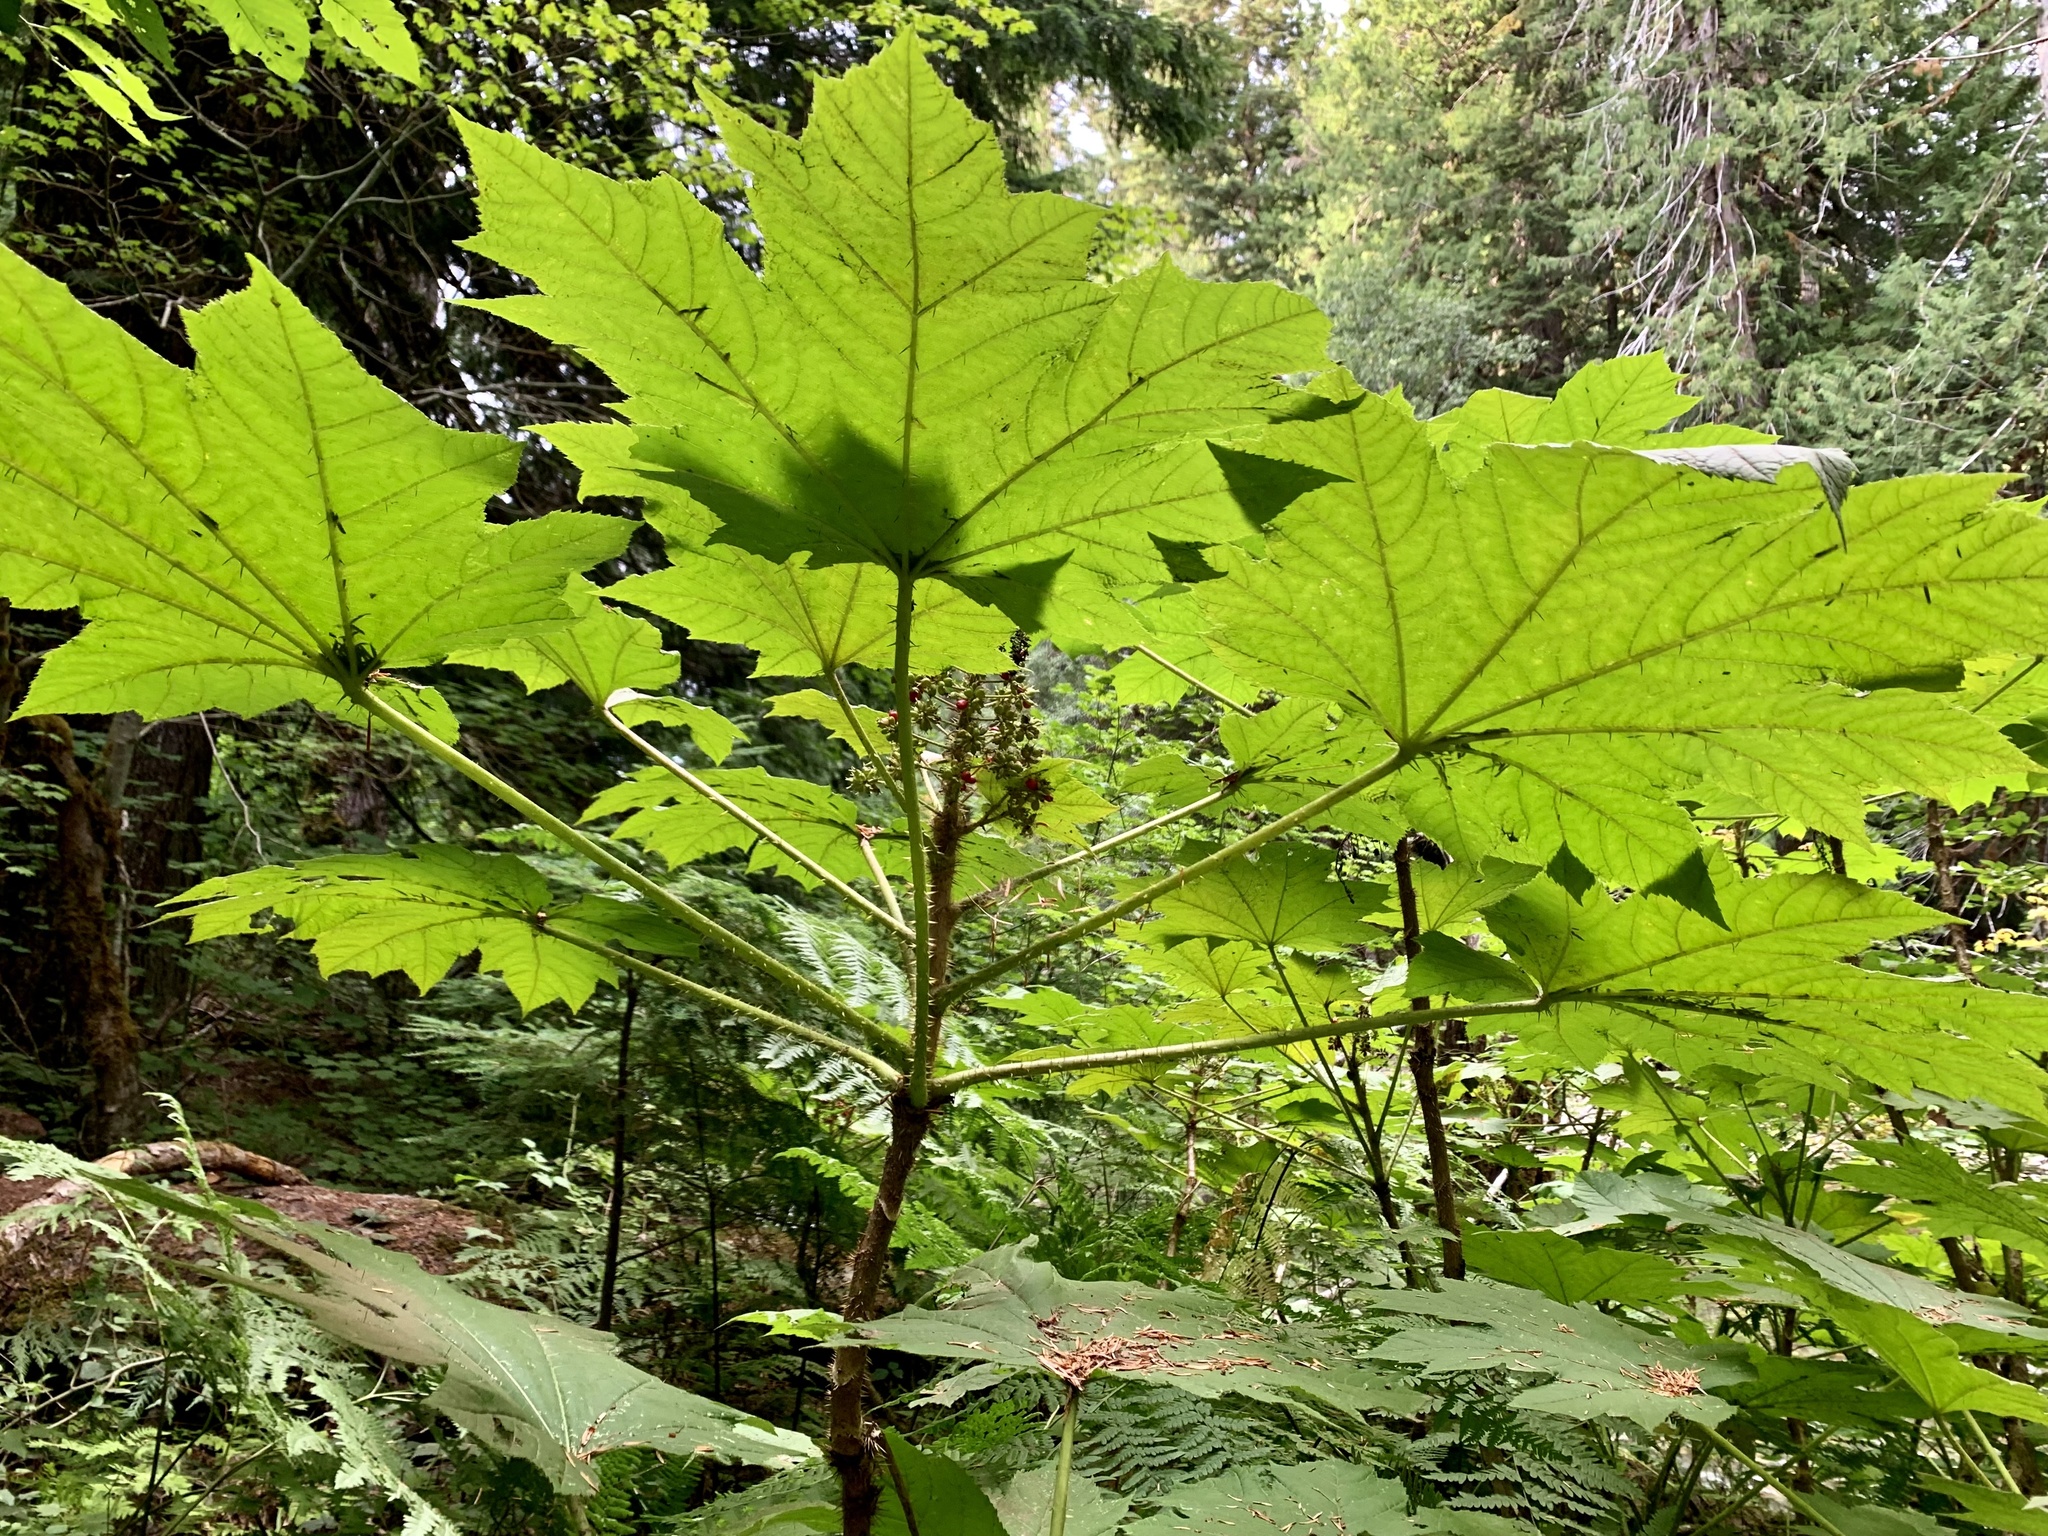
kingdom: Plantae
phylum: Tracheophyta
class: Magnoliopsida
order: Apiales
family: Araliaceae
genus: Oplopanax
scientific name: Oplopanax horridus
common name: Devil's walking-stick
